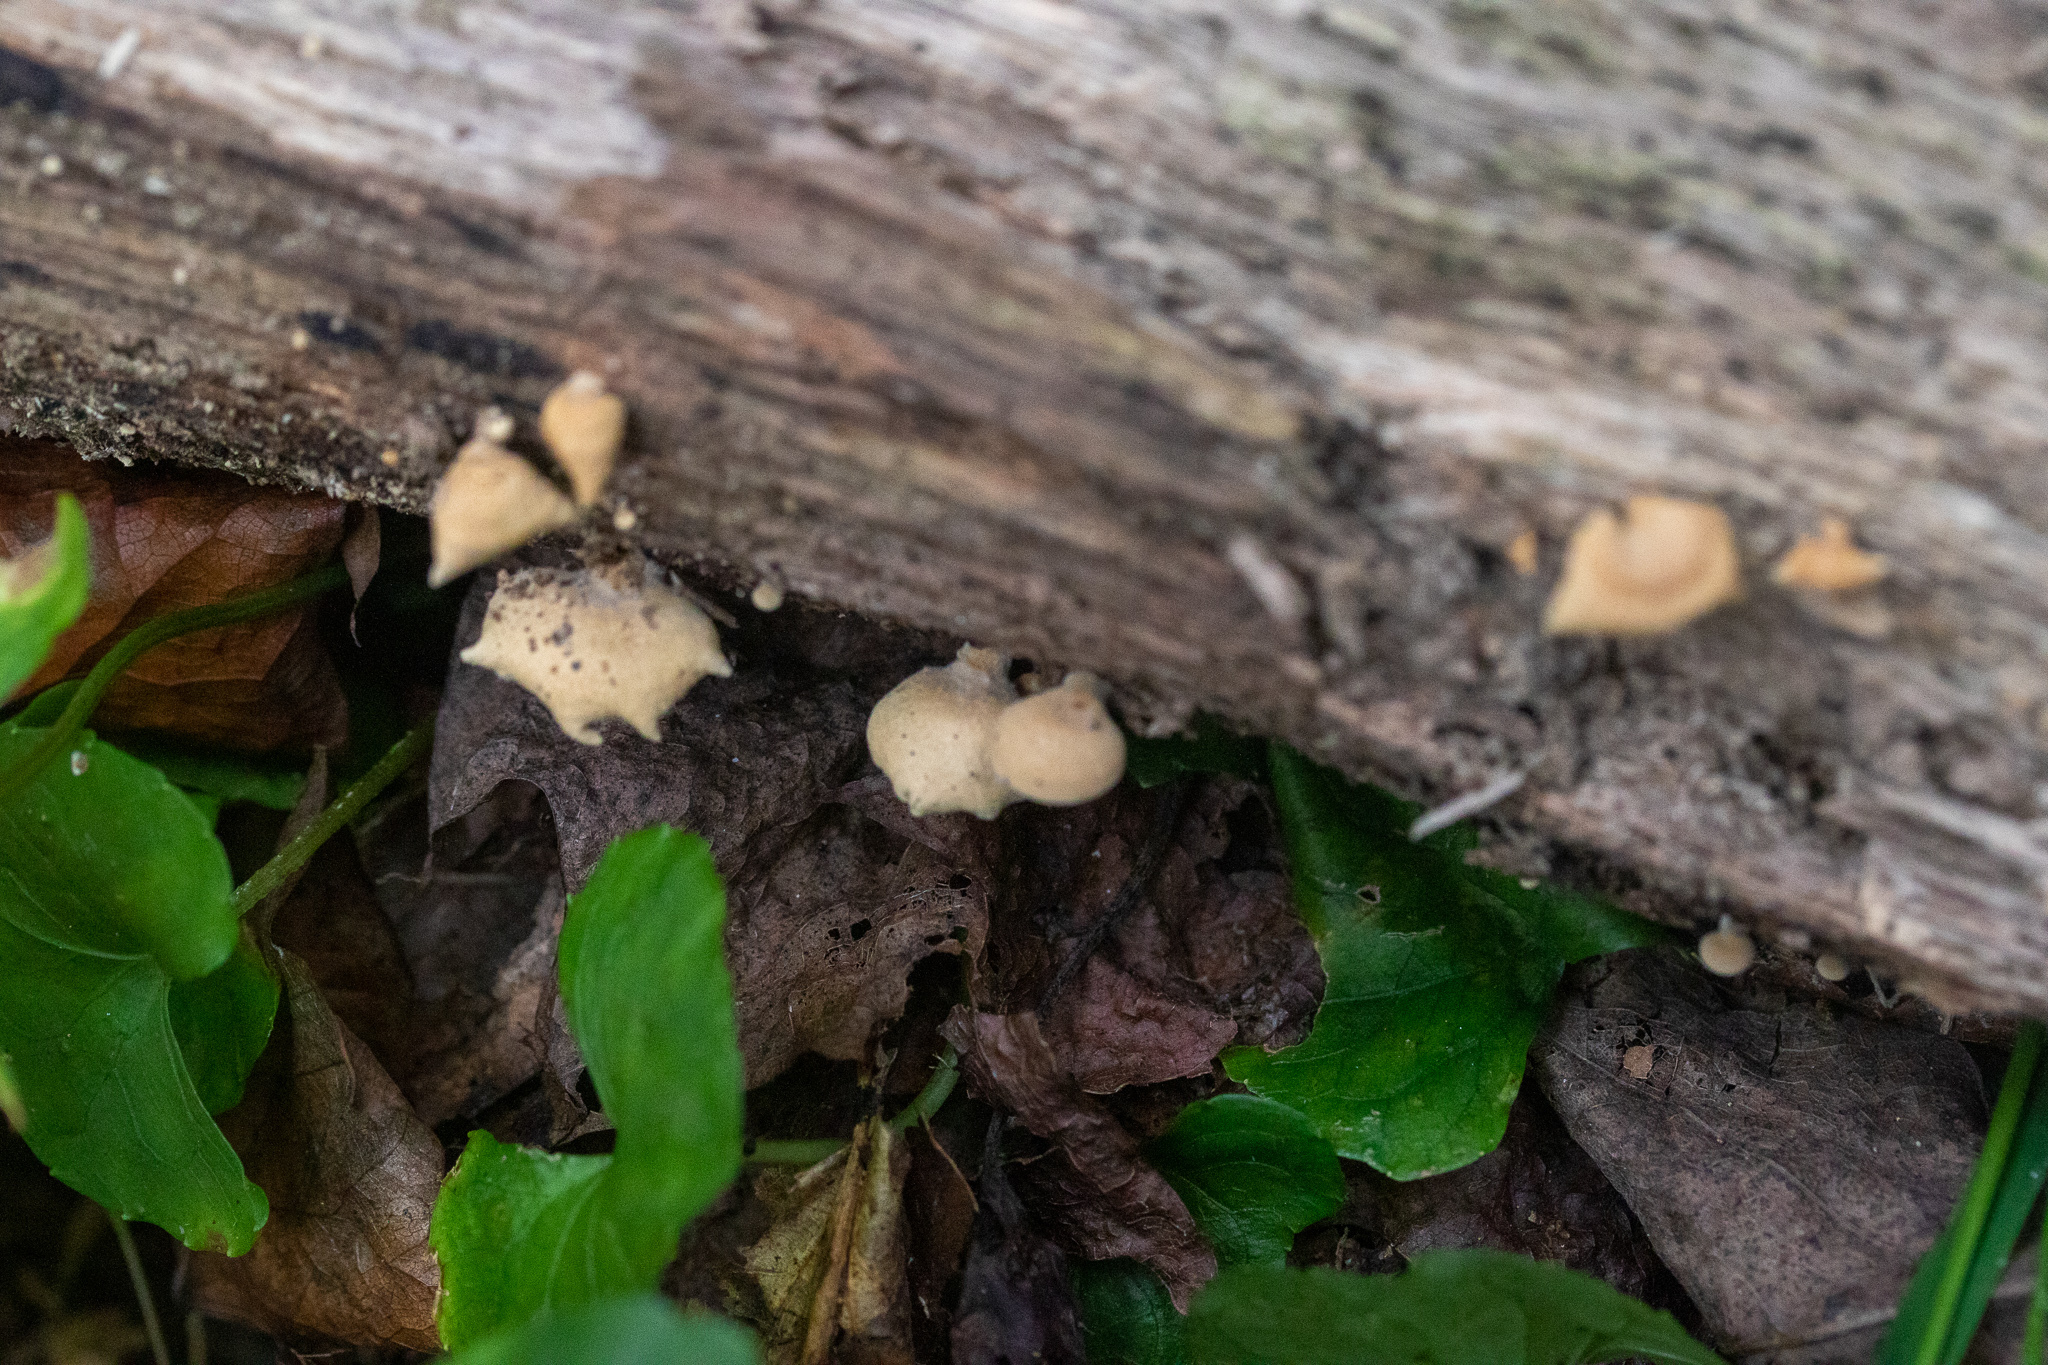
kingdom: Fungi
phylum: Basidiomycota
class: Agaricomycetes
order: Agaricales
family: Mycenaceae
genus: Panellus
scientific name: Panellus stipticus
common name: Bitter oysterling
